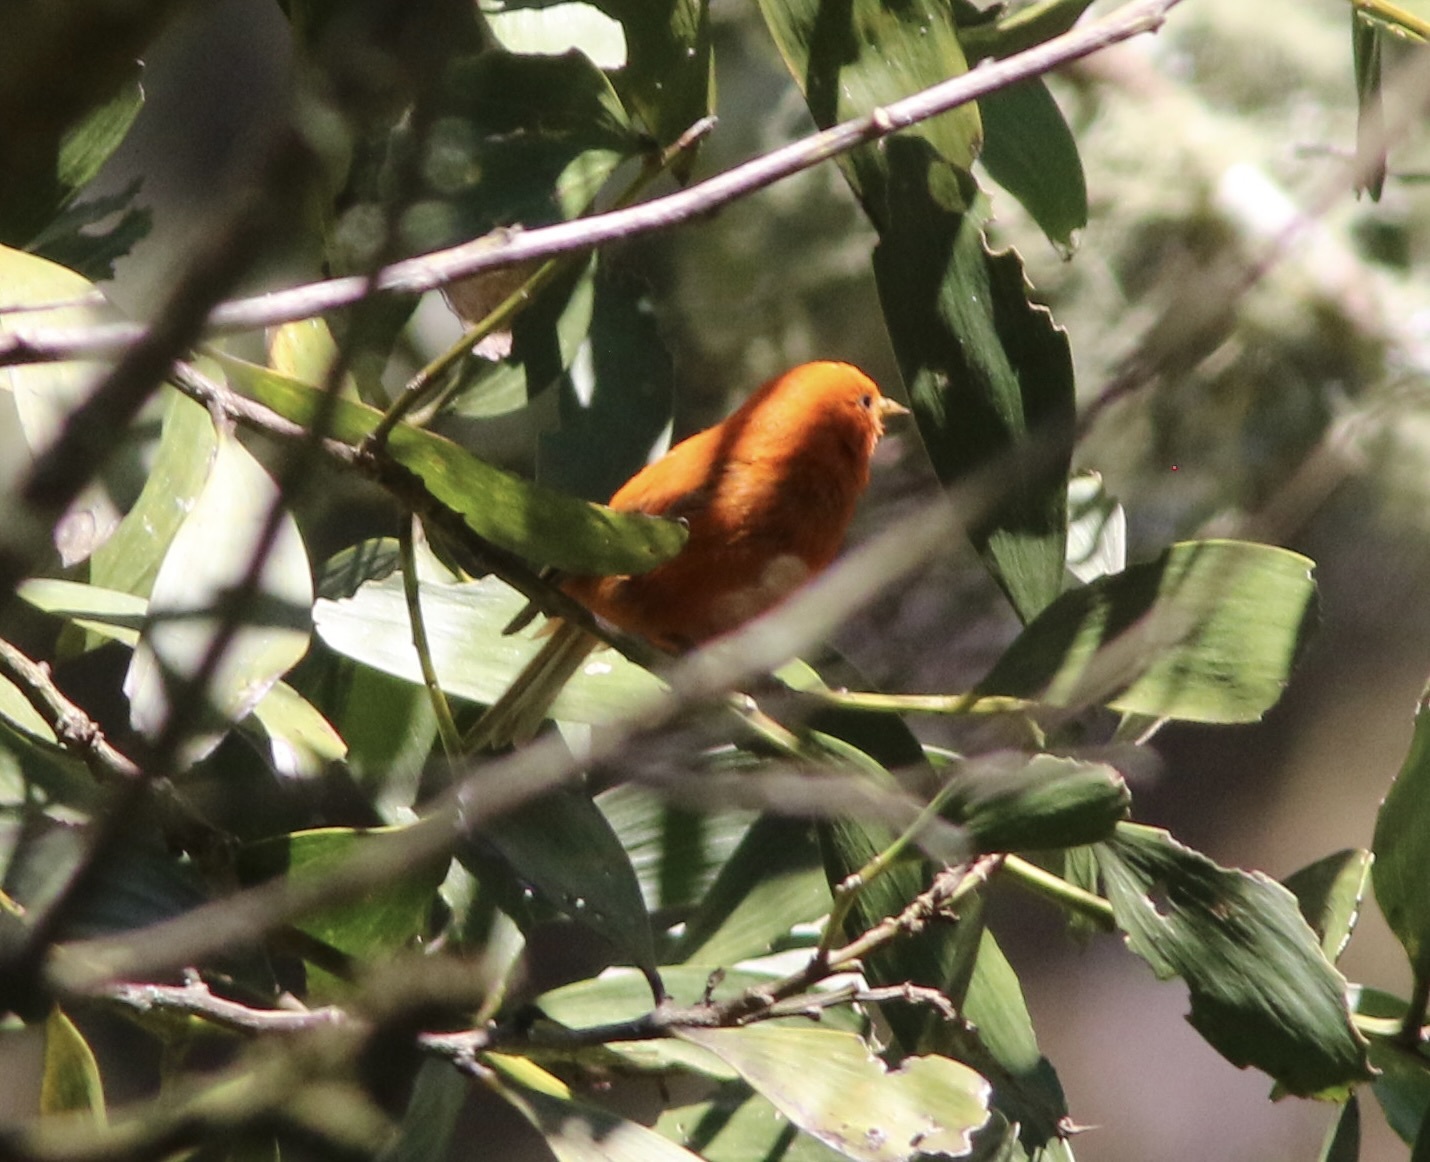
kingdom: Animalia
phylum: Chordata
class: Aves
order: Passeriformes
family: Fringillidae
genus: Loxops
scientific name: Loxops coccineus
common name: Hawaii akepa
